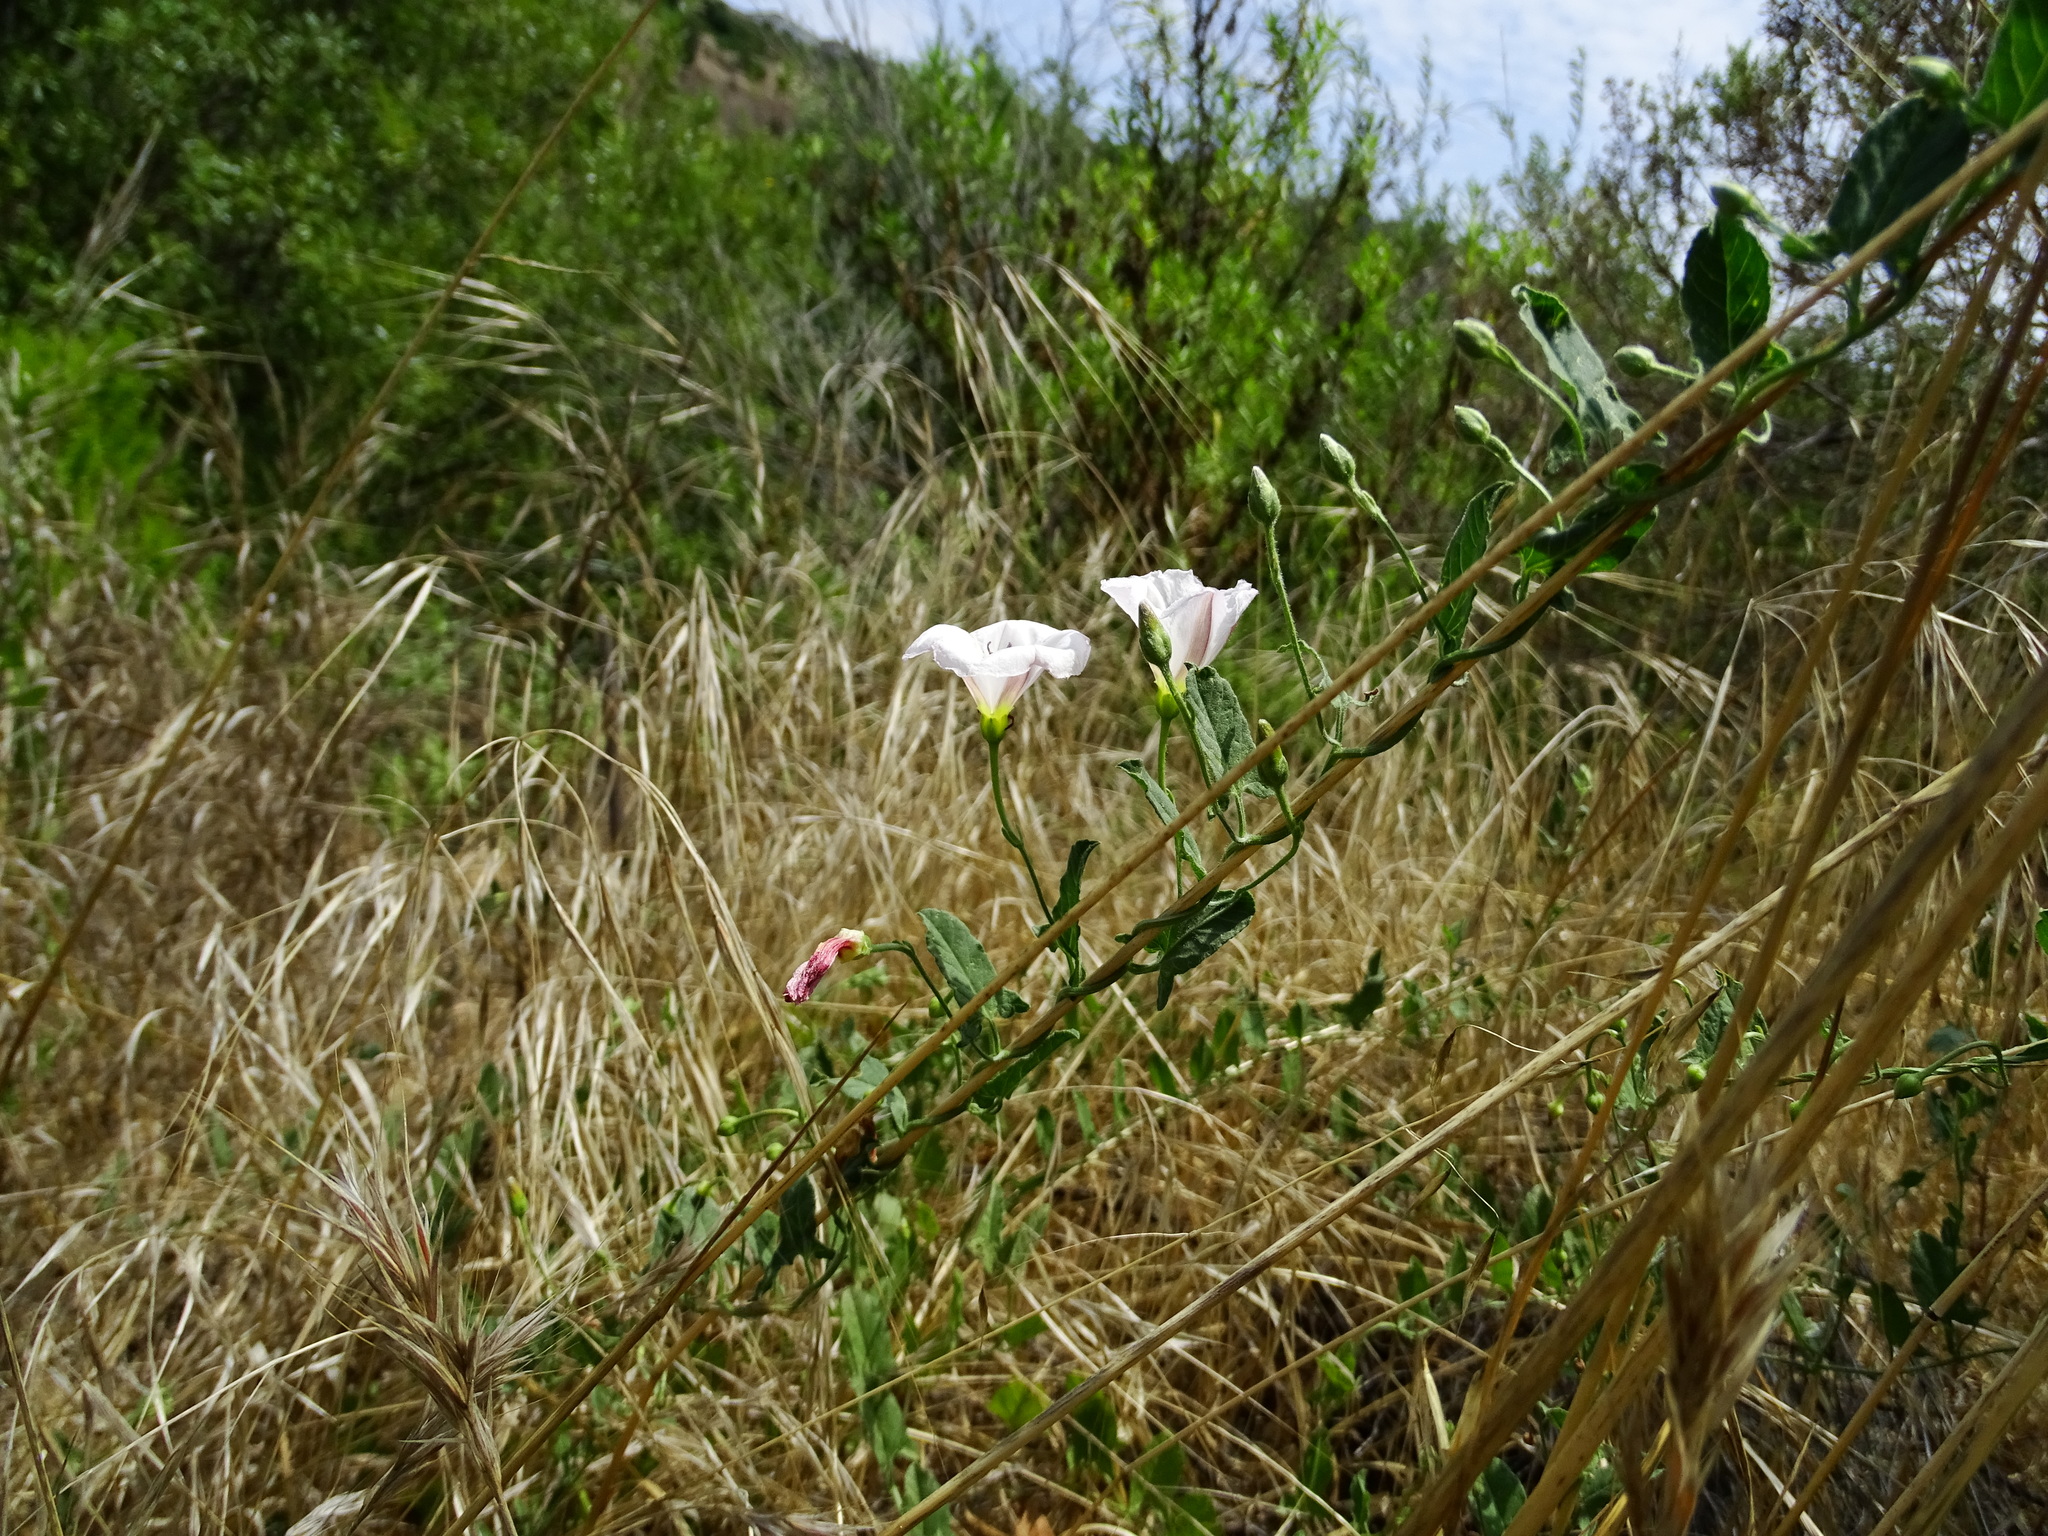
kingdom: Plantae
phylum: Tracheophyta
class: Magnoliopsida
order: Solanales
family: Convolvulaceae
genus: Convolvulus
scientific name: Convolvulus arvensis
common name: Field bindweed
